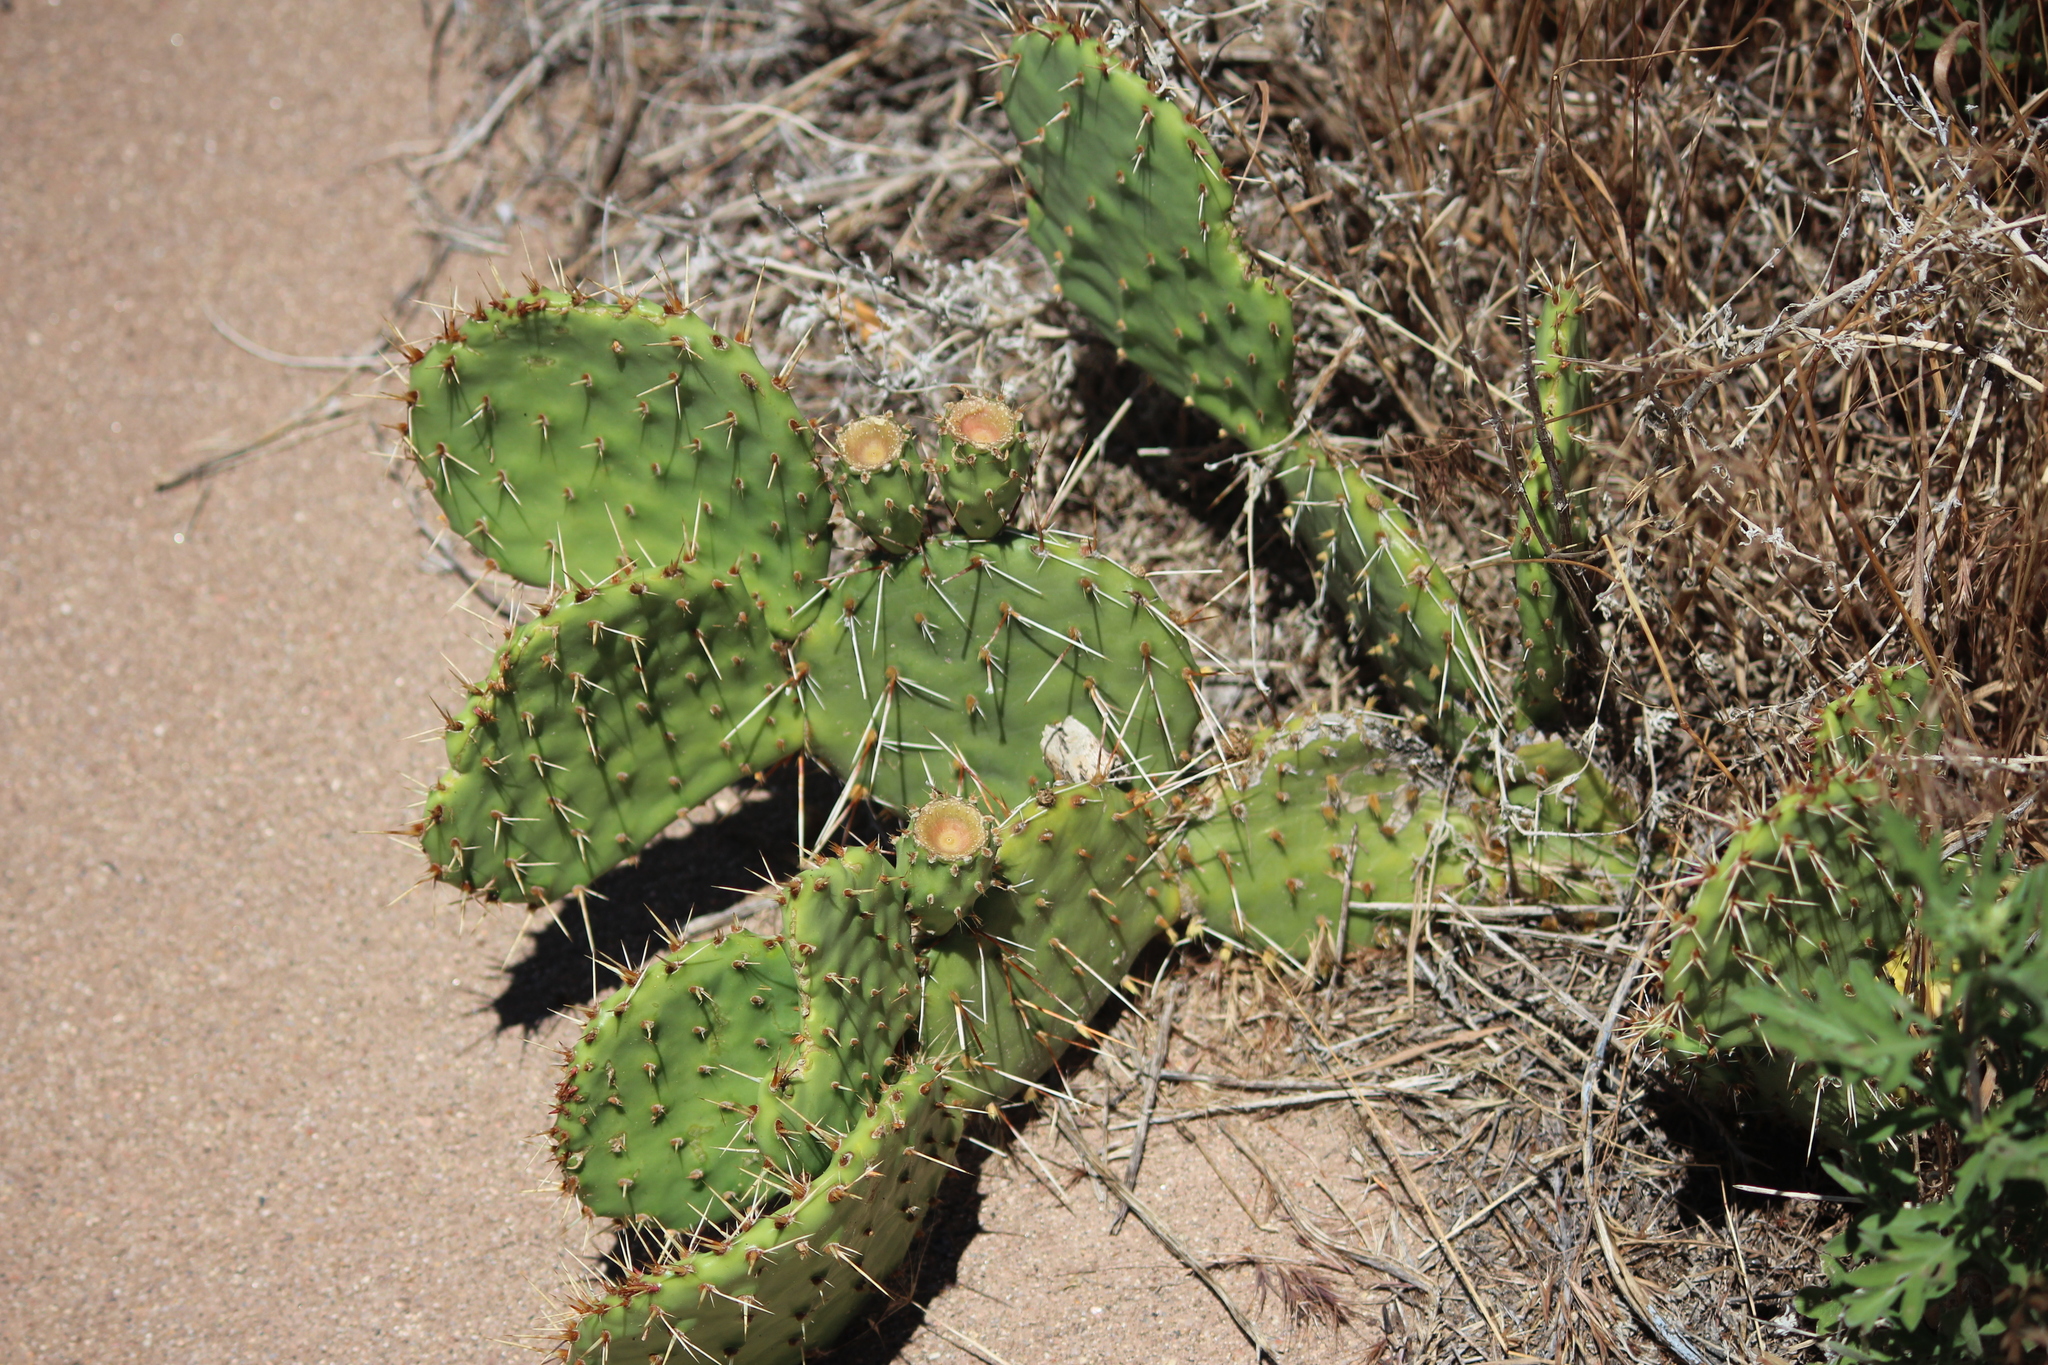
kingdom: Plantae
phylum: Tracheophyta
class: Magnoliopsida
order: Caryophyllales
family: Cactaceae
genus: Opuntia
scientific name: Opuntia polyacantha
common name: Plains prickly-pear
